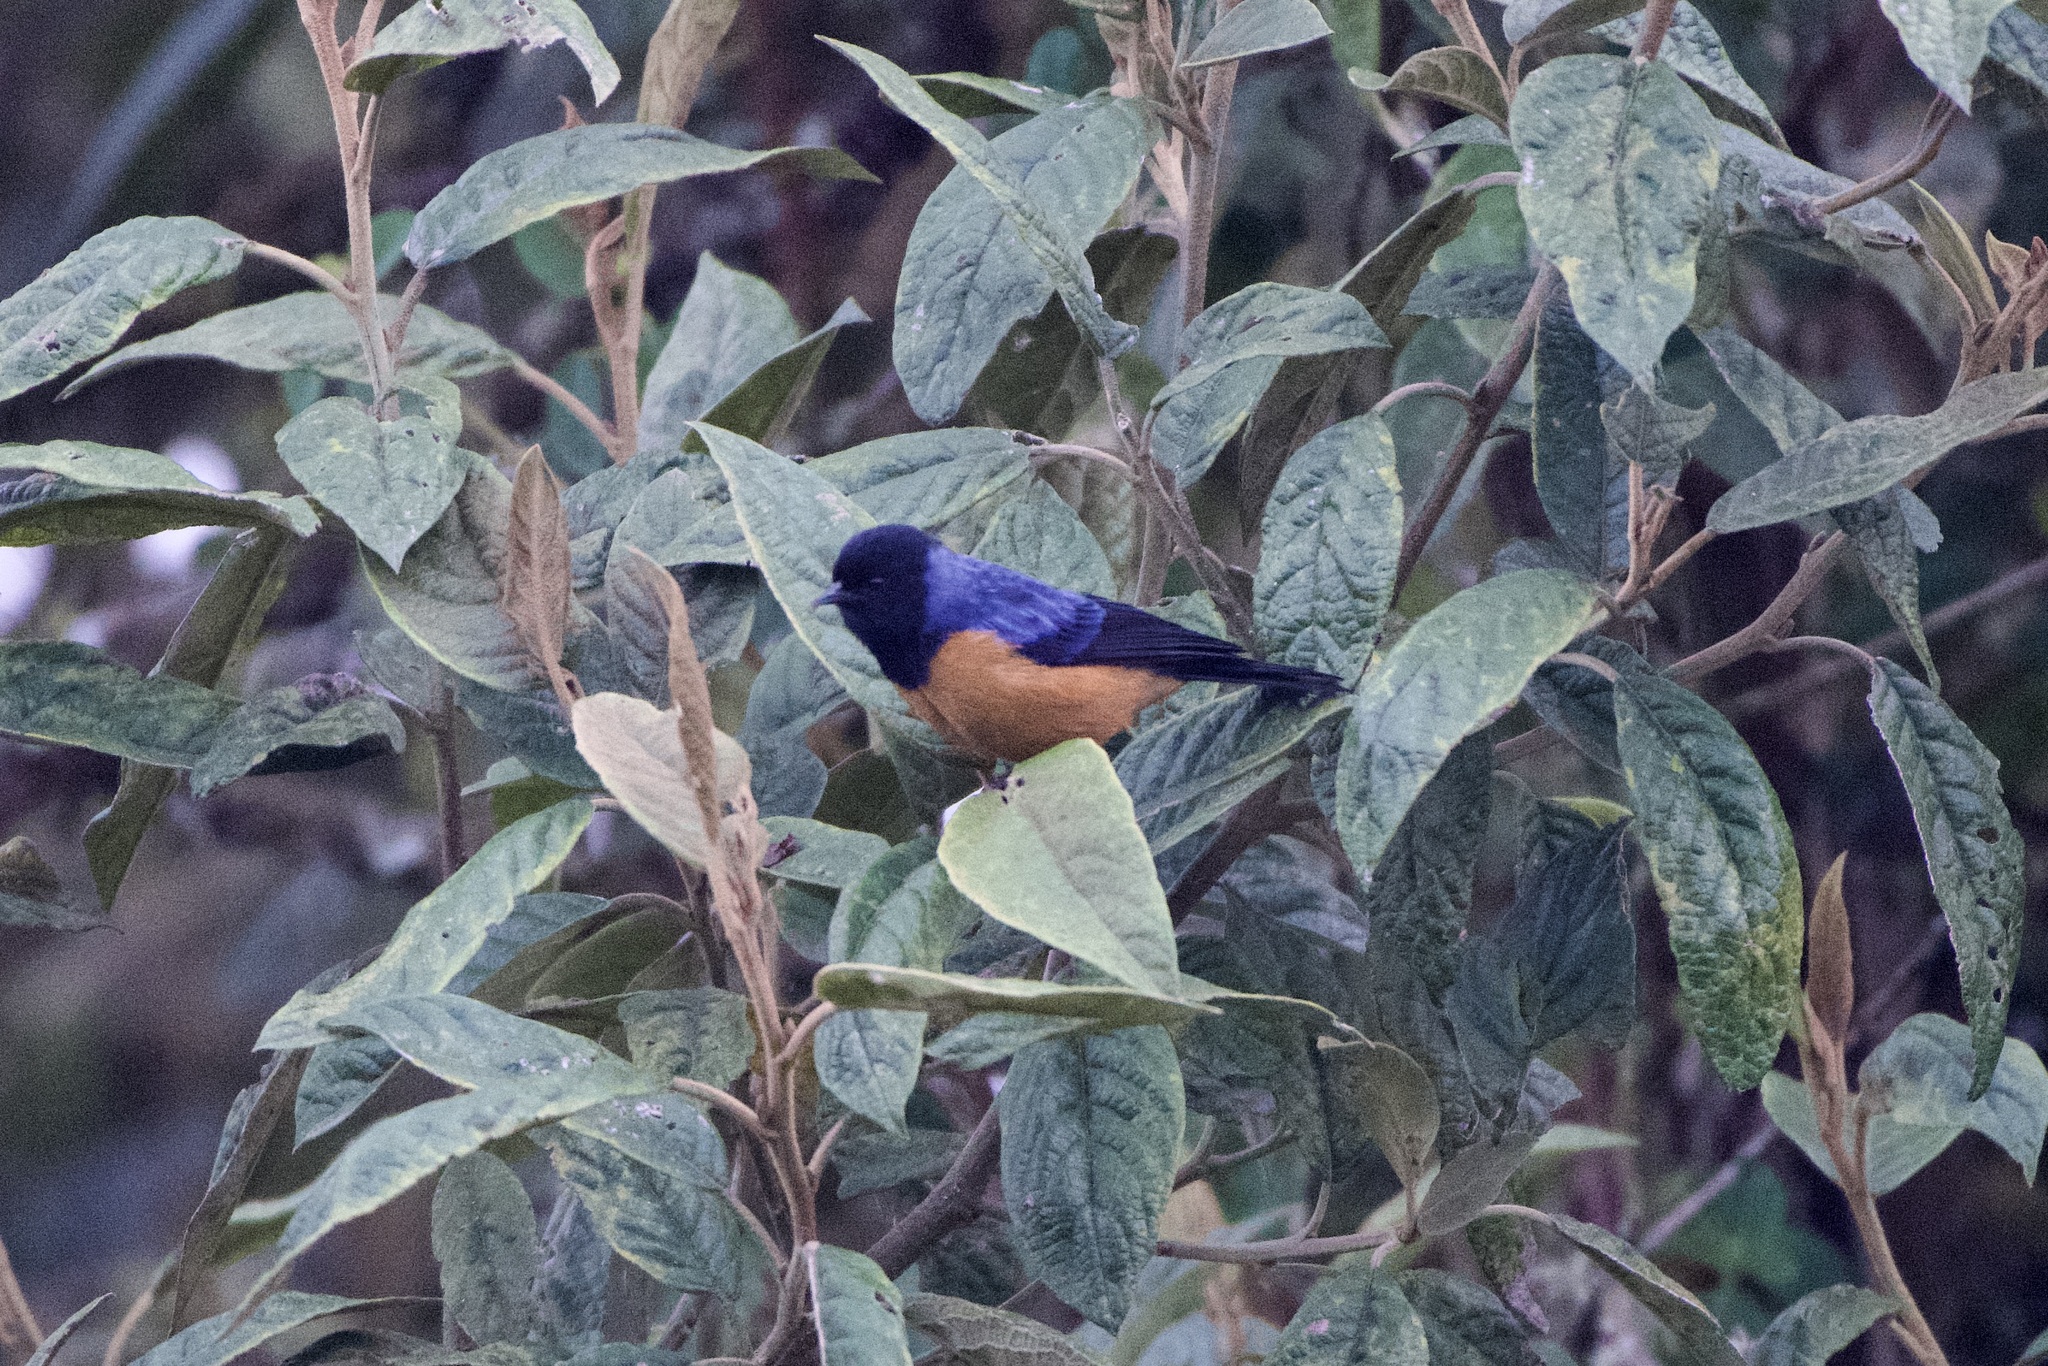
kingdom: Animalia
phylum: Chordata
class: Aves
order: Passeriformes
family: Thraupidae
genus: Conirostrum
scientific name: Conirostrum sitticolor
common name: Blue-backed conebill
